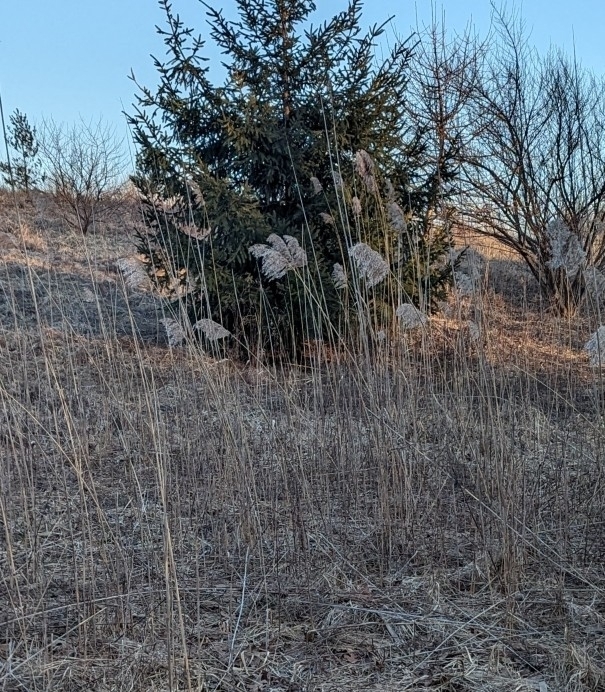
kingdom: Plantae
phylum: Tracheophyta
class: Liliopsida
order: Poales
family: Poaceae
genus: Phragmites
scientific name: Phragmites australis
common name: Common reed
